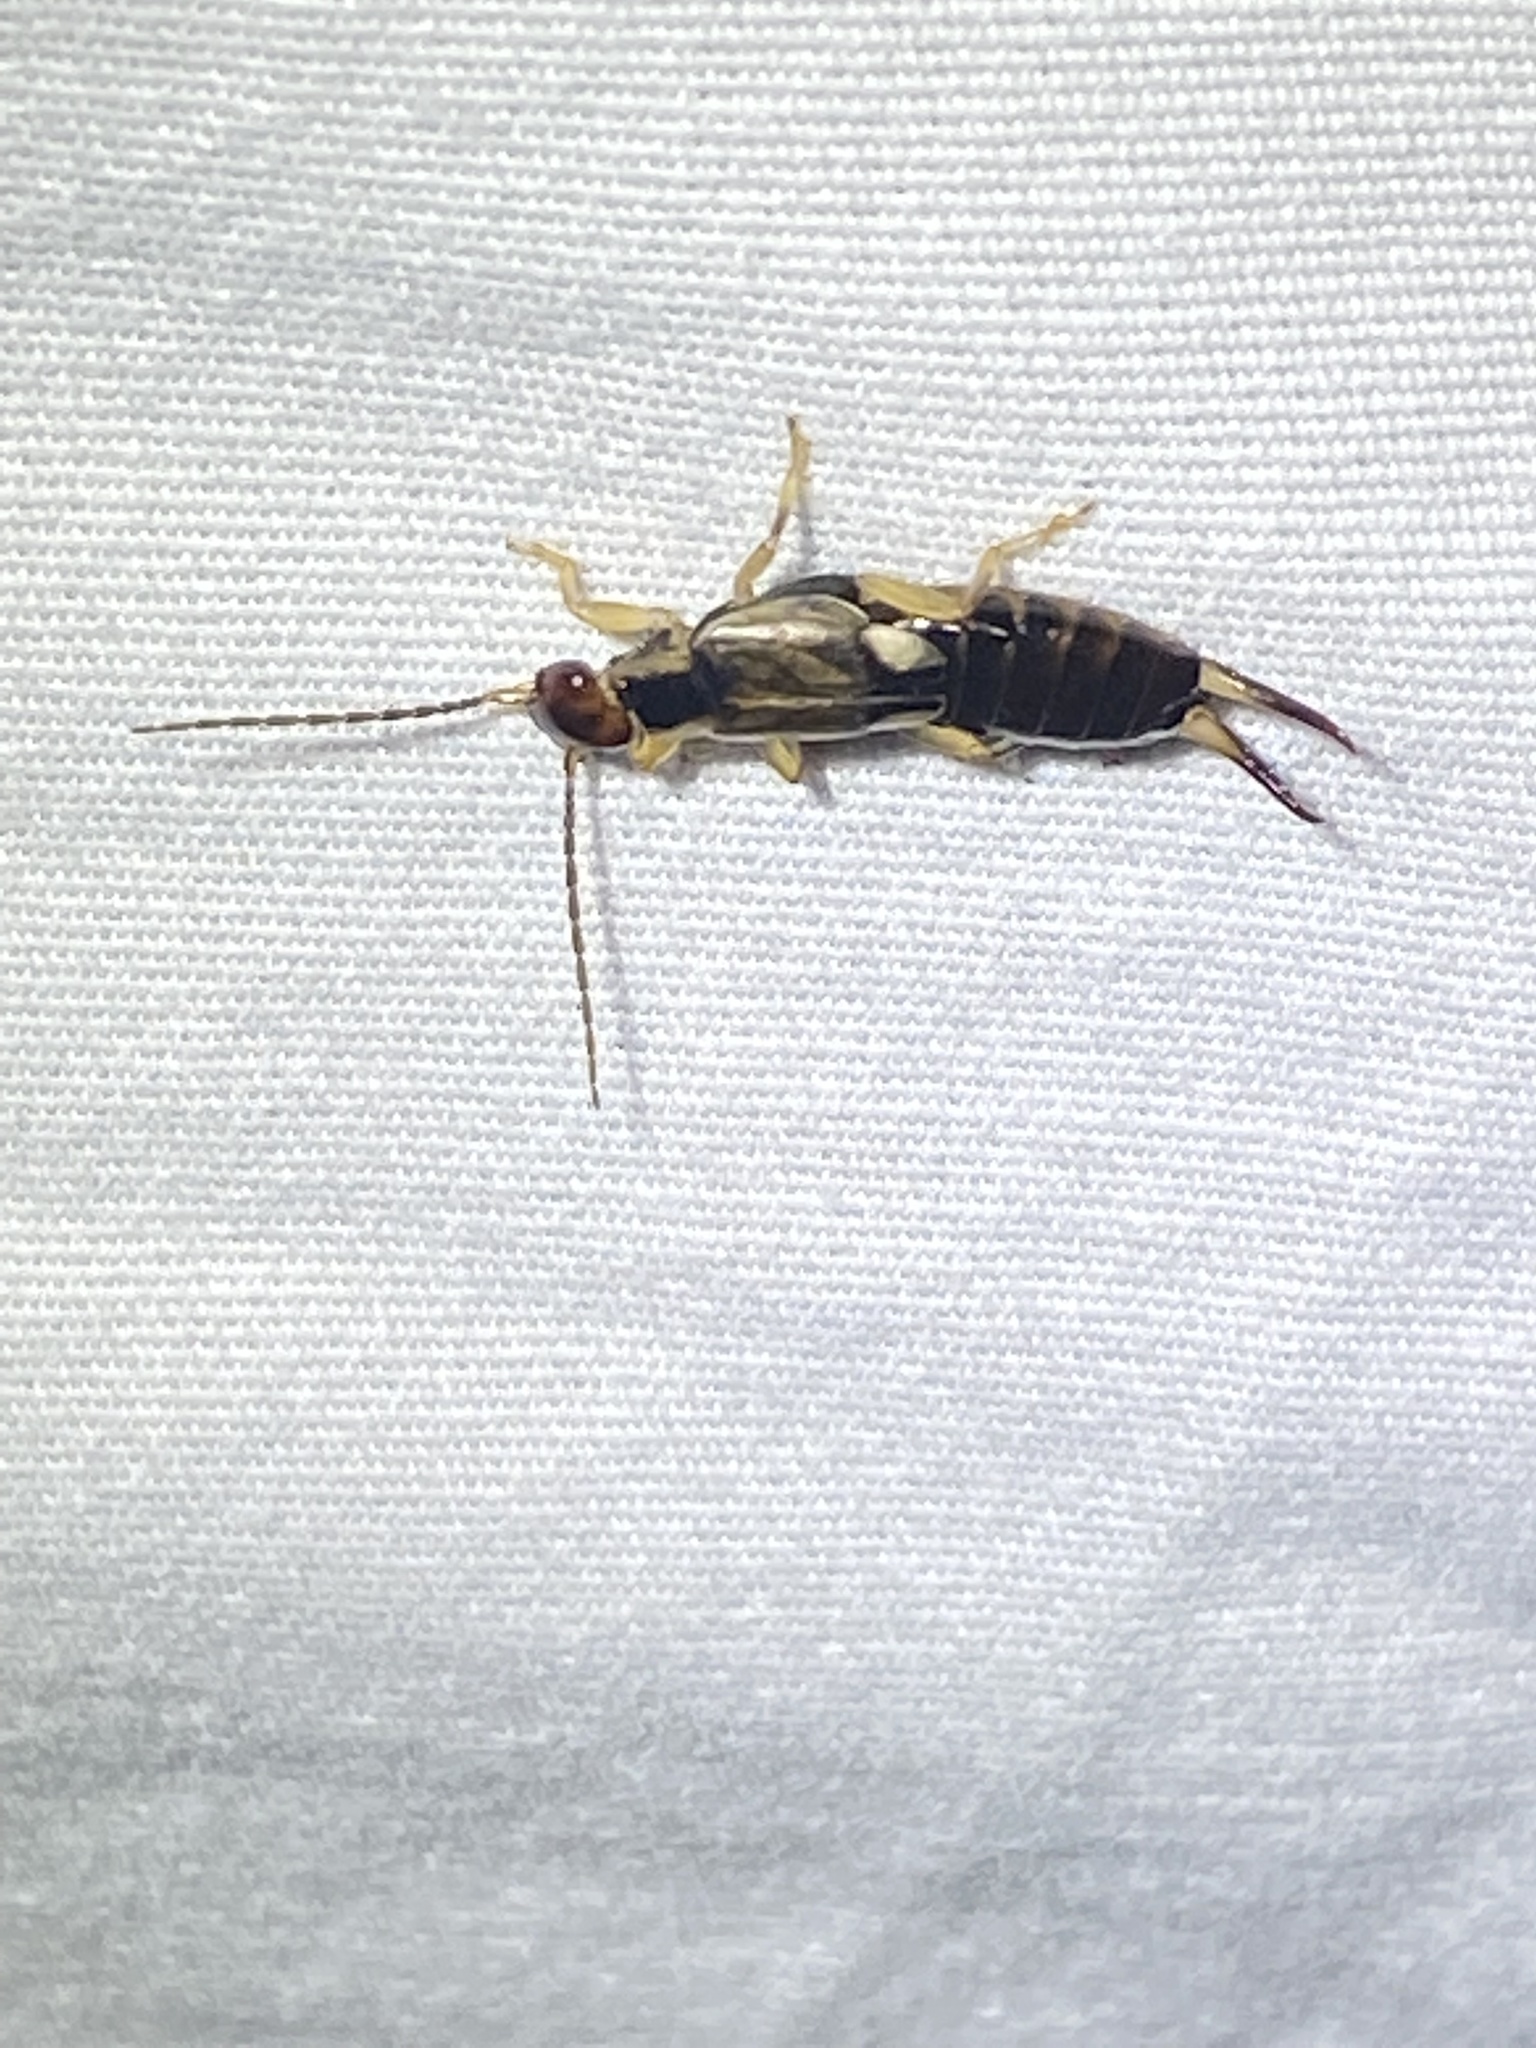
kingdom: Animalia
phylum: Arthropoda
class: Insecta
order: Dermaptera
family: Forficulidae
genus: Forficula
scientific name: Forficula
